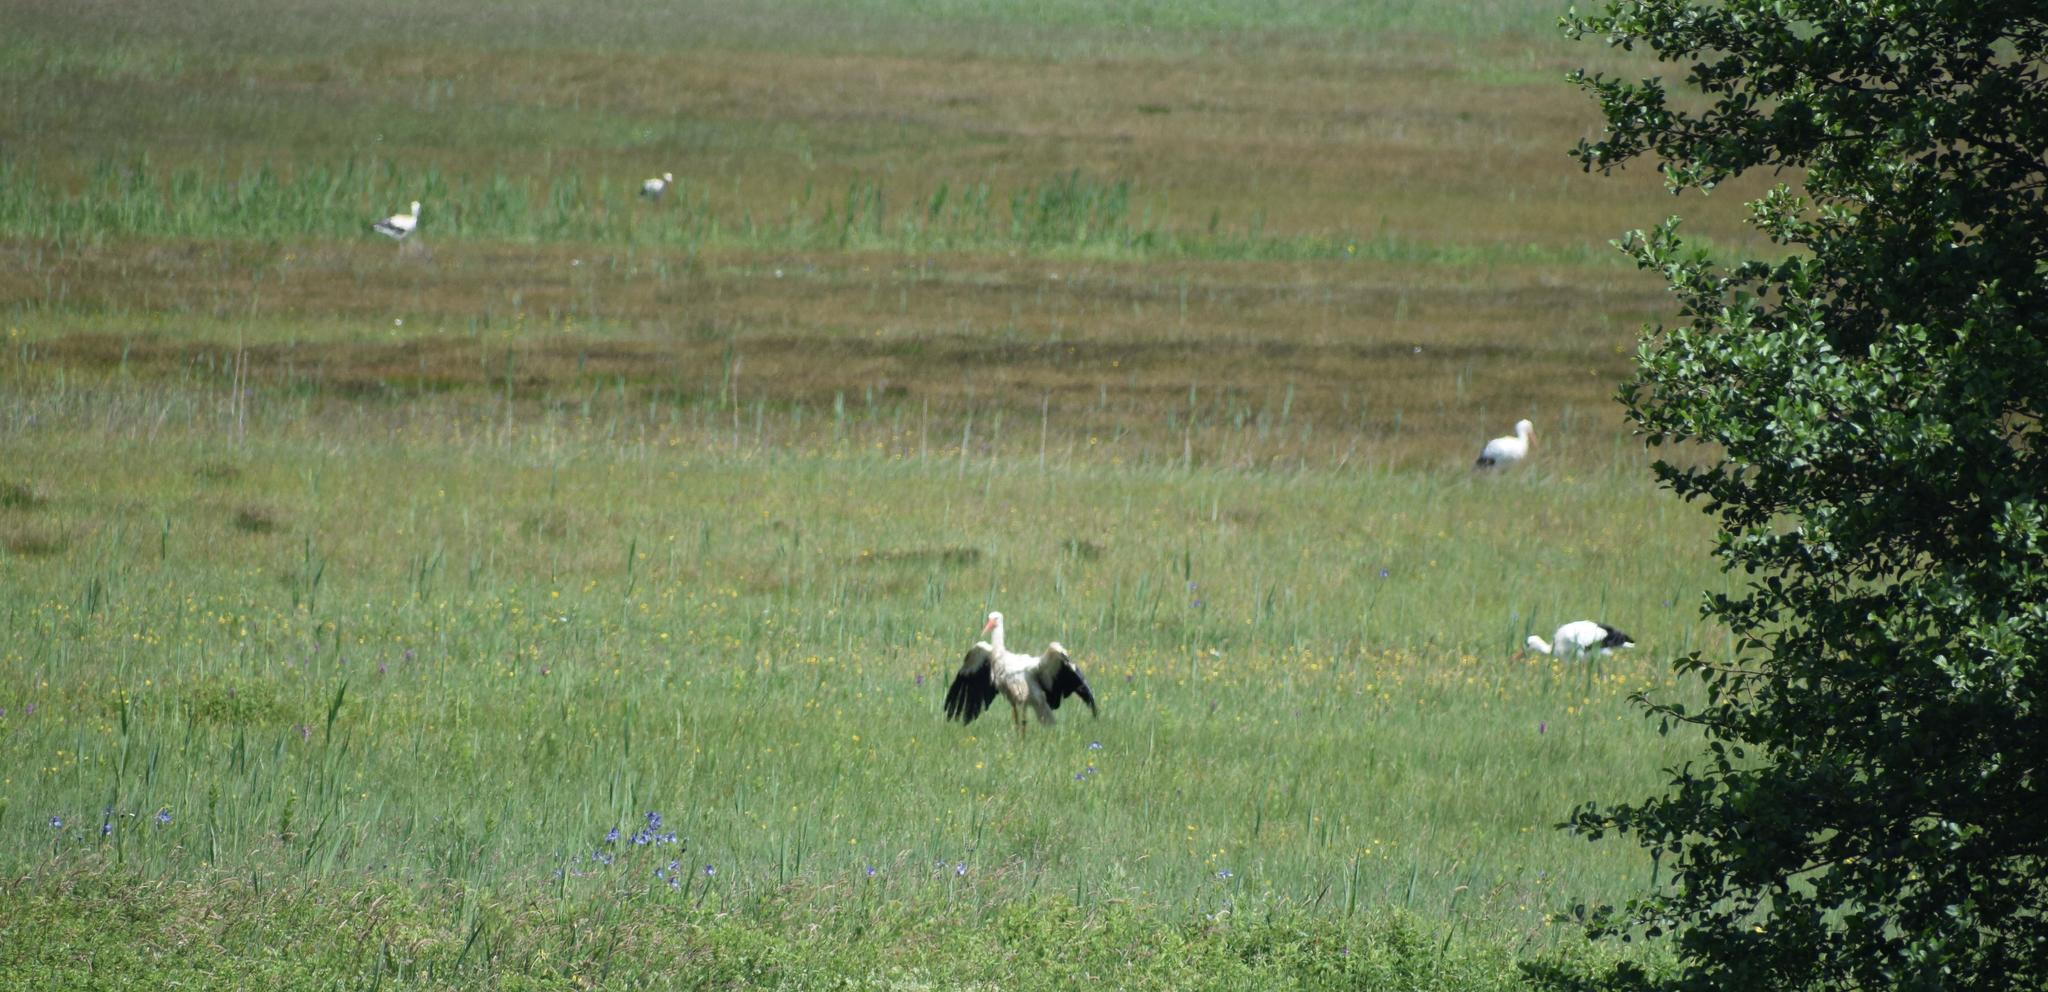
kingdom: Animalia
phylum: Chordata
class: Aves
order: Ciconiiformes
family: Ciconiidae
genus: Ciconia
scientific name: Ciconia ciconia
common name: White stork
